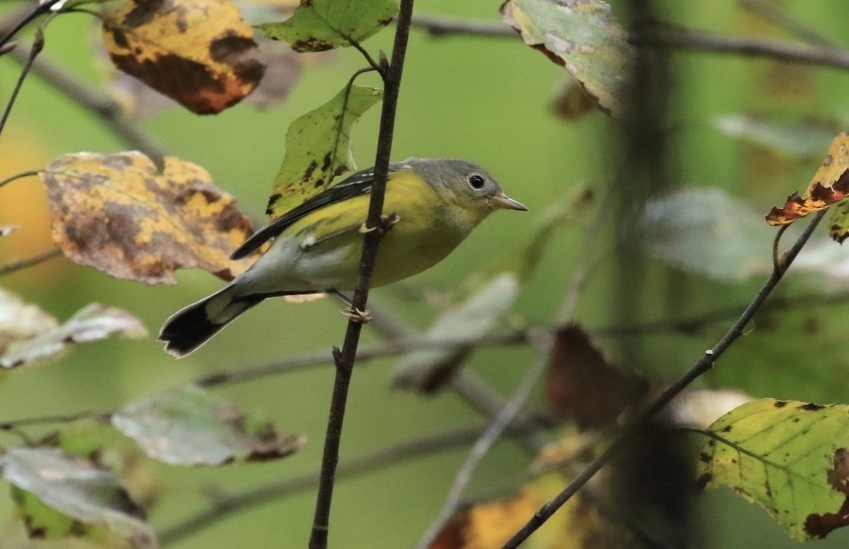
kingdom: Animalia
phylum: Chordata
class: Aves
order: Passeriformes
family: Parulidae
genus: Setophaga
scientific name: Setophaga magnolia
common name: Magnolia warbler
